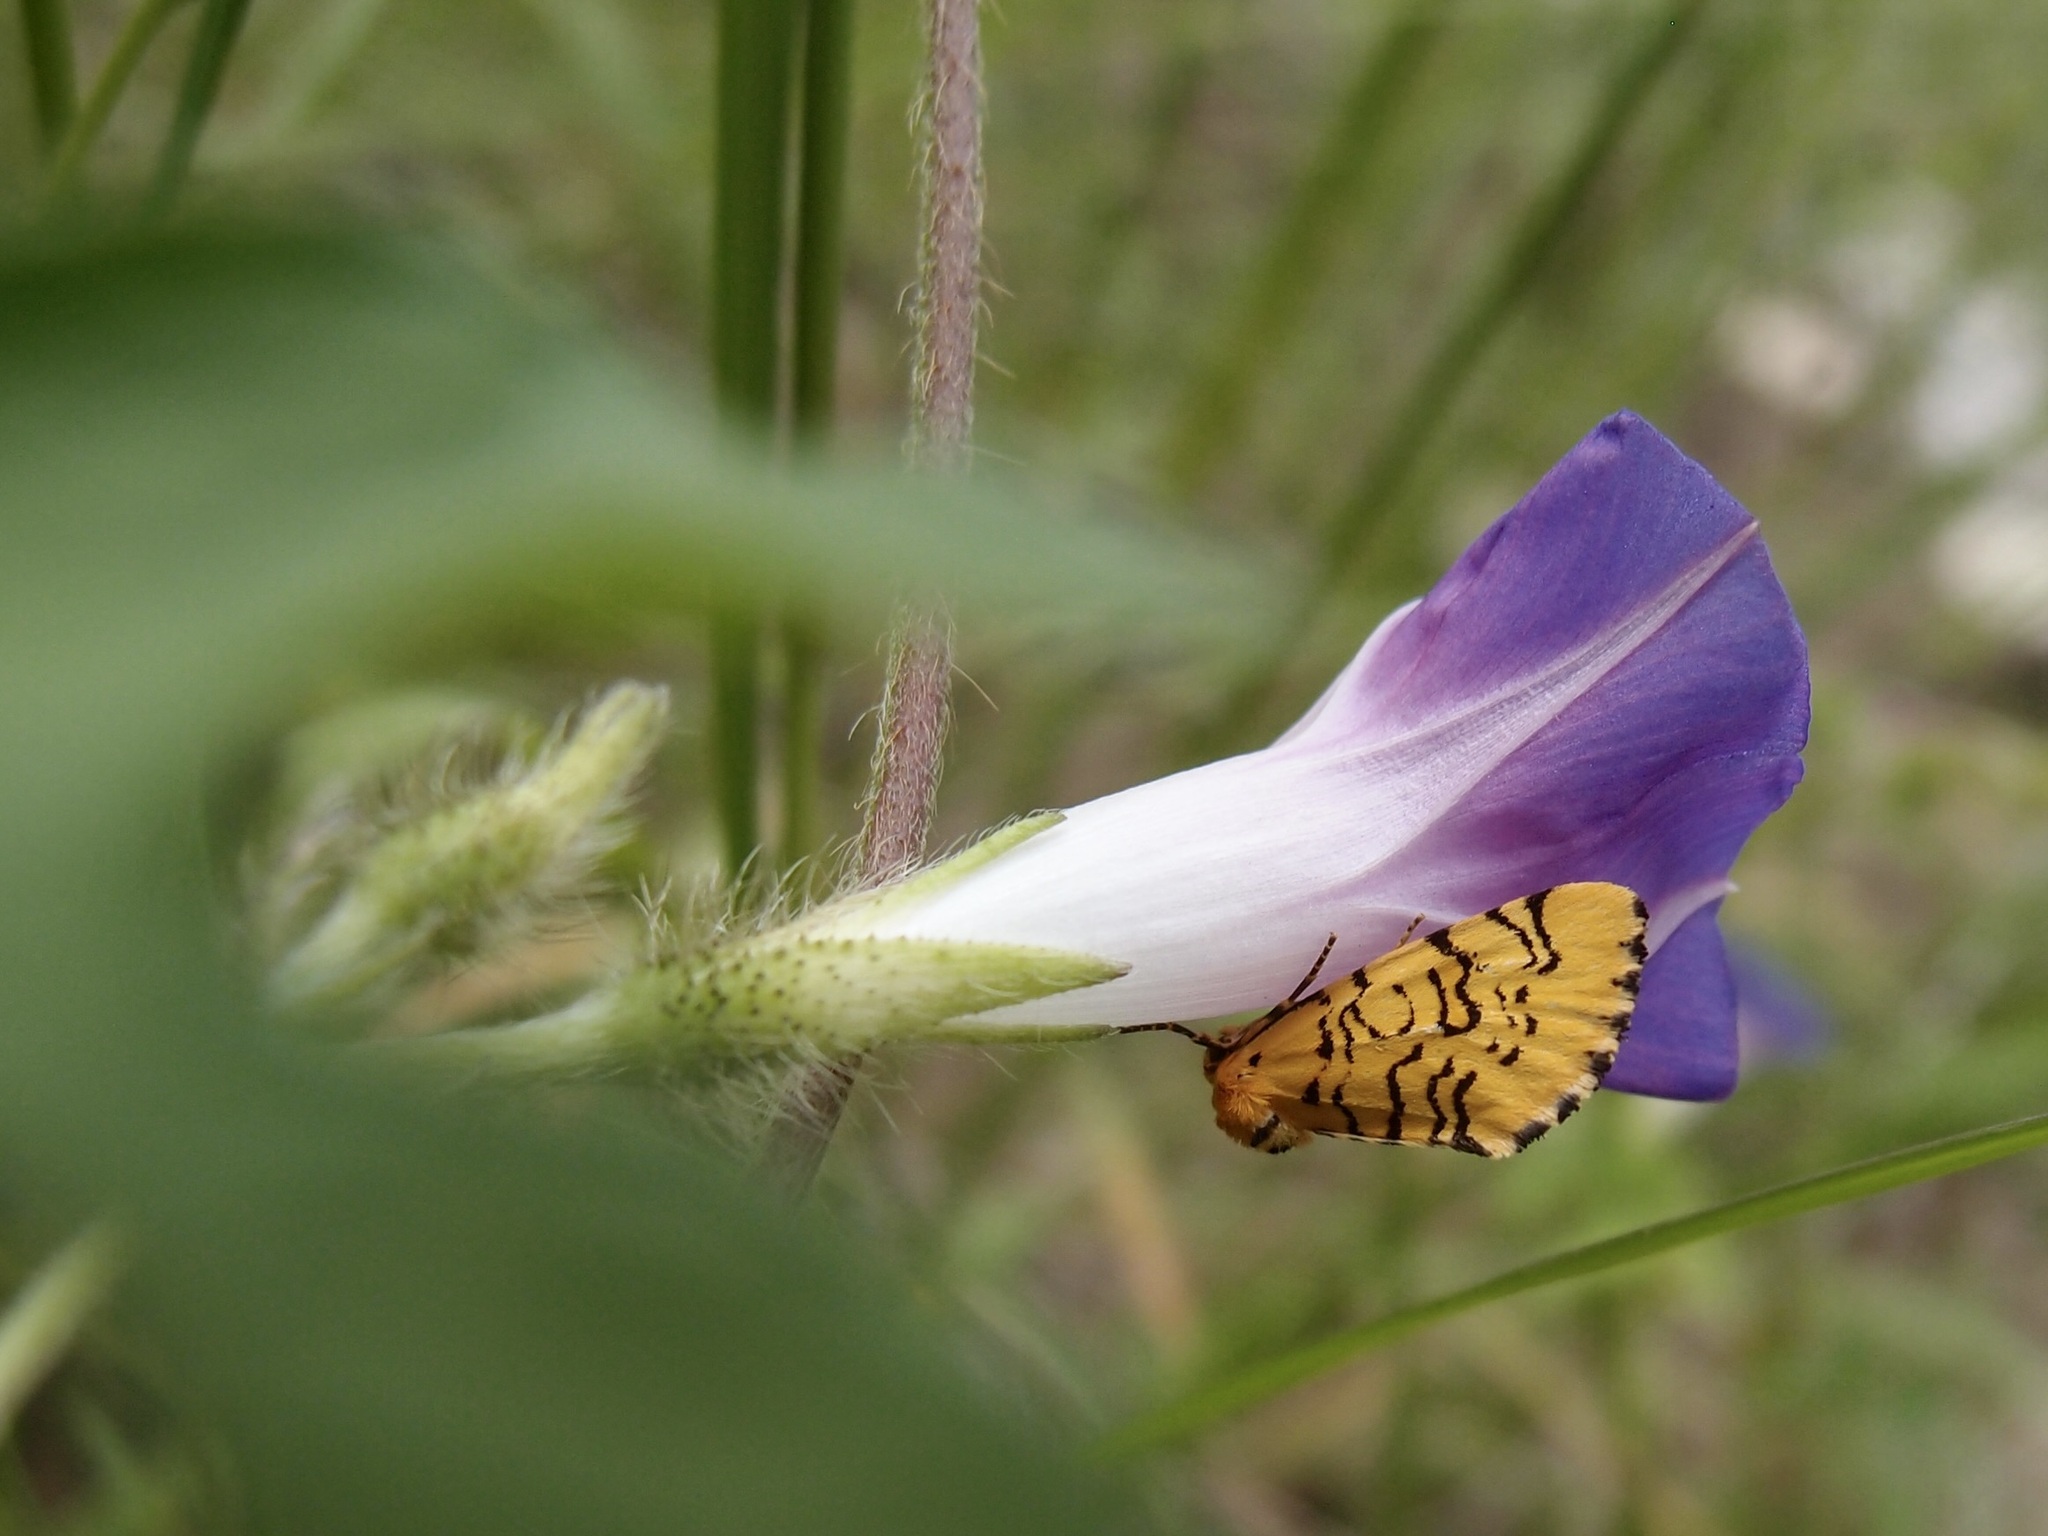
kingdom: Plantae
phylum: Tracheophyta
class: Magnoliopsida
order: Solanales
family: Convolvulaceae
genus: Ipomoea
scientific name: Ipomoea purpurea
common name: Common morning-glory
